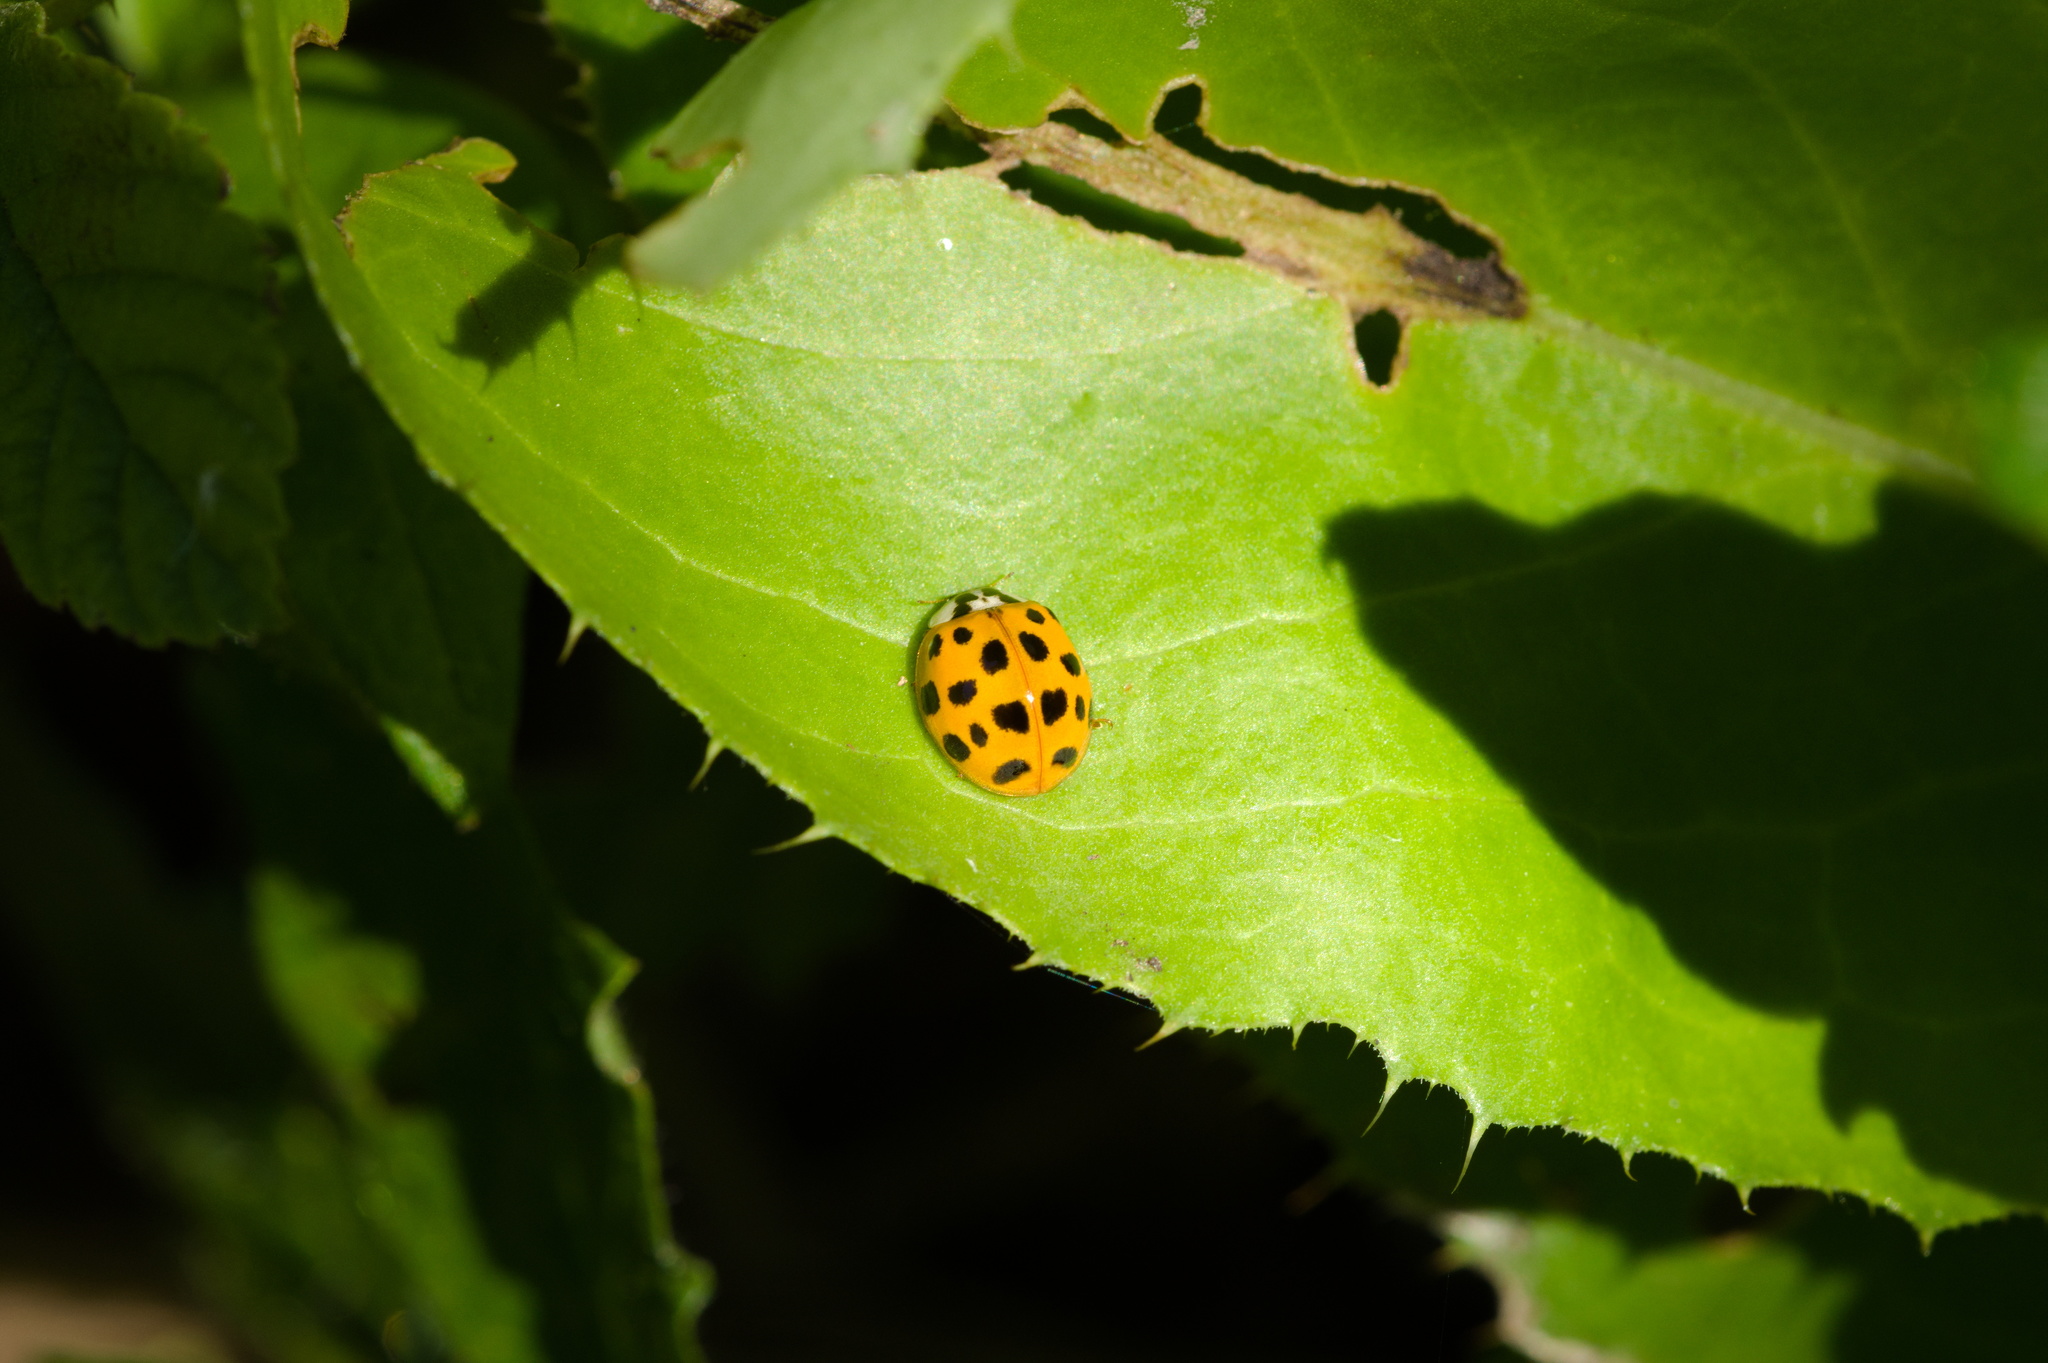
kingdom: Animalia
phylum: Arthropoda
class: Insecta
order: Coleoptera
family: Coccinellidae
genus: Harmonia
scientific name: Harmonia axyridis
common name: Harlequin ladybird
